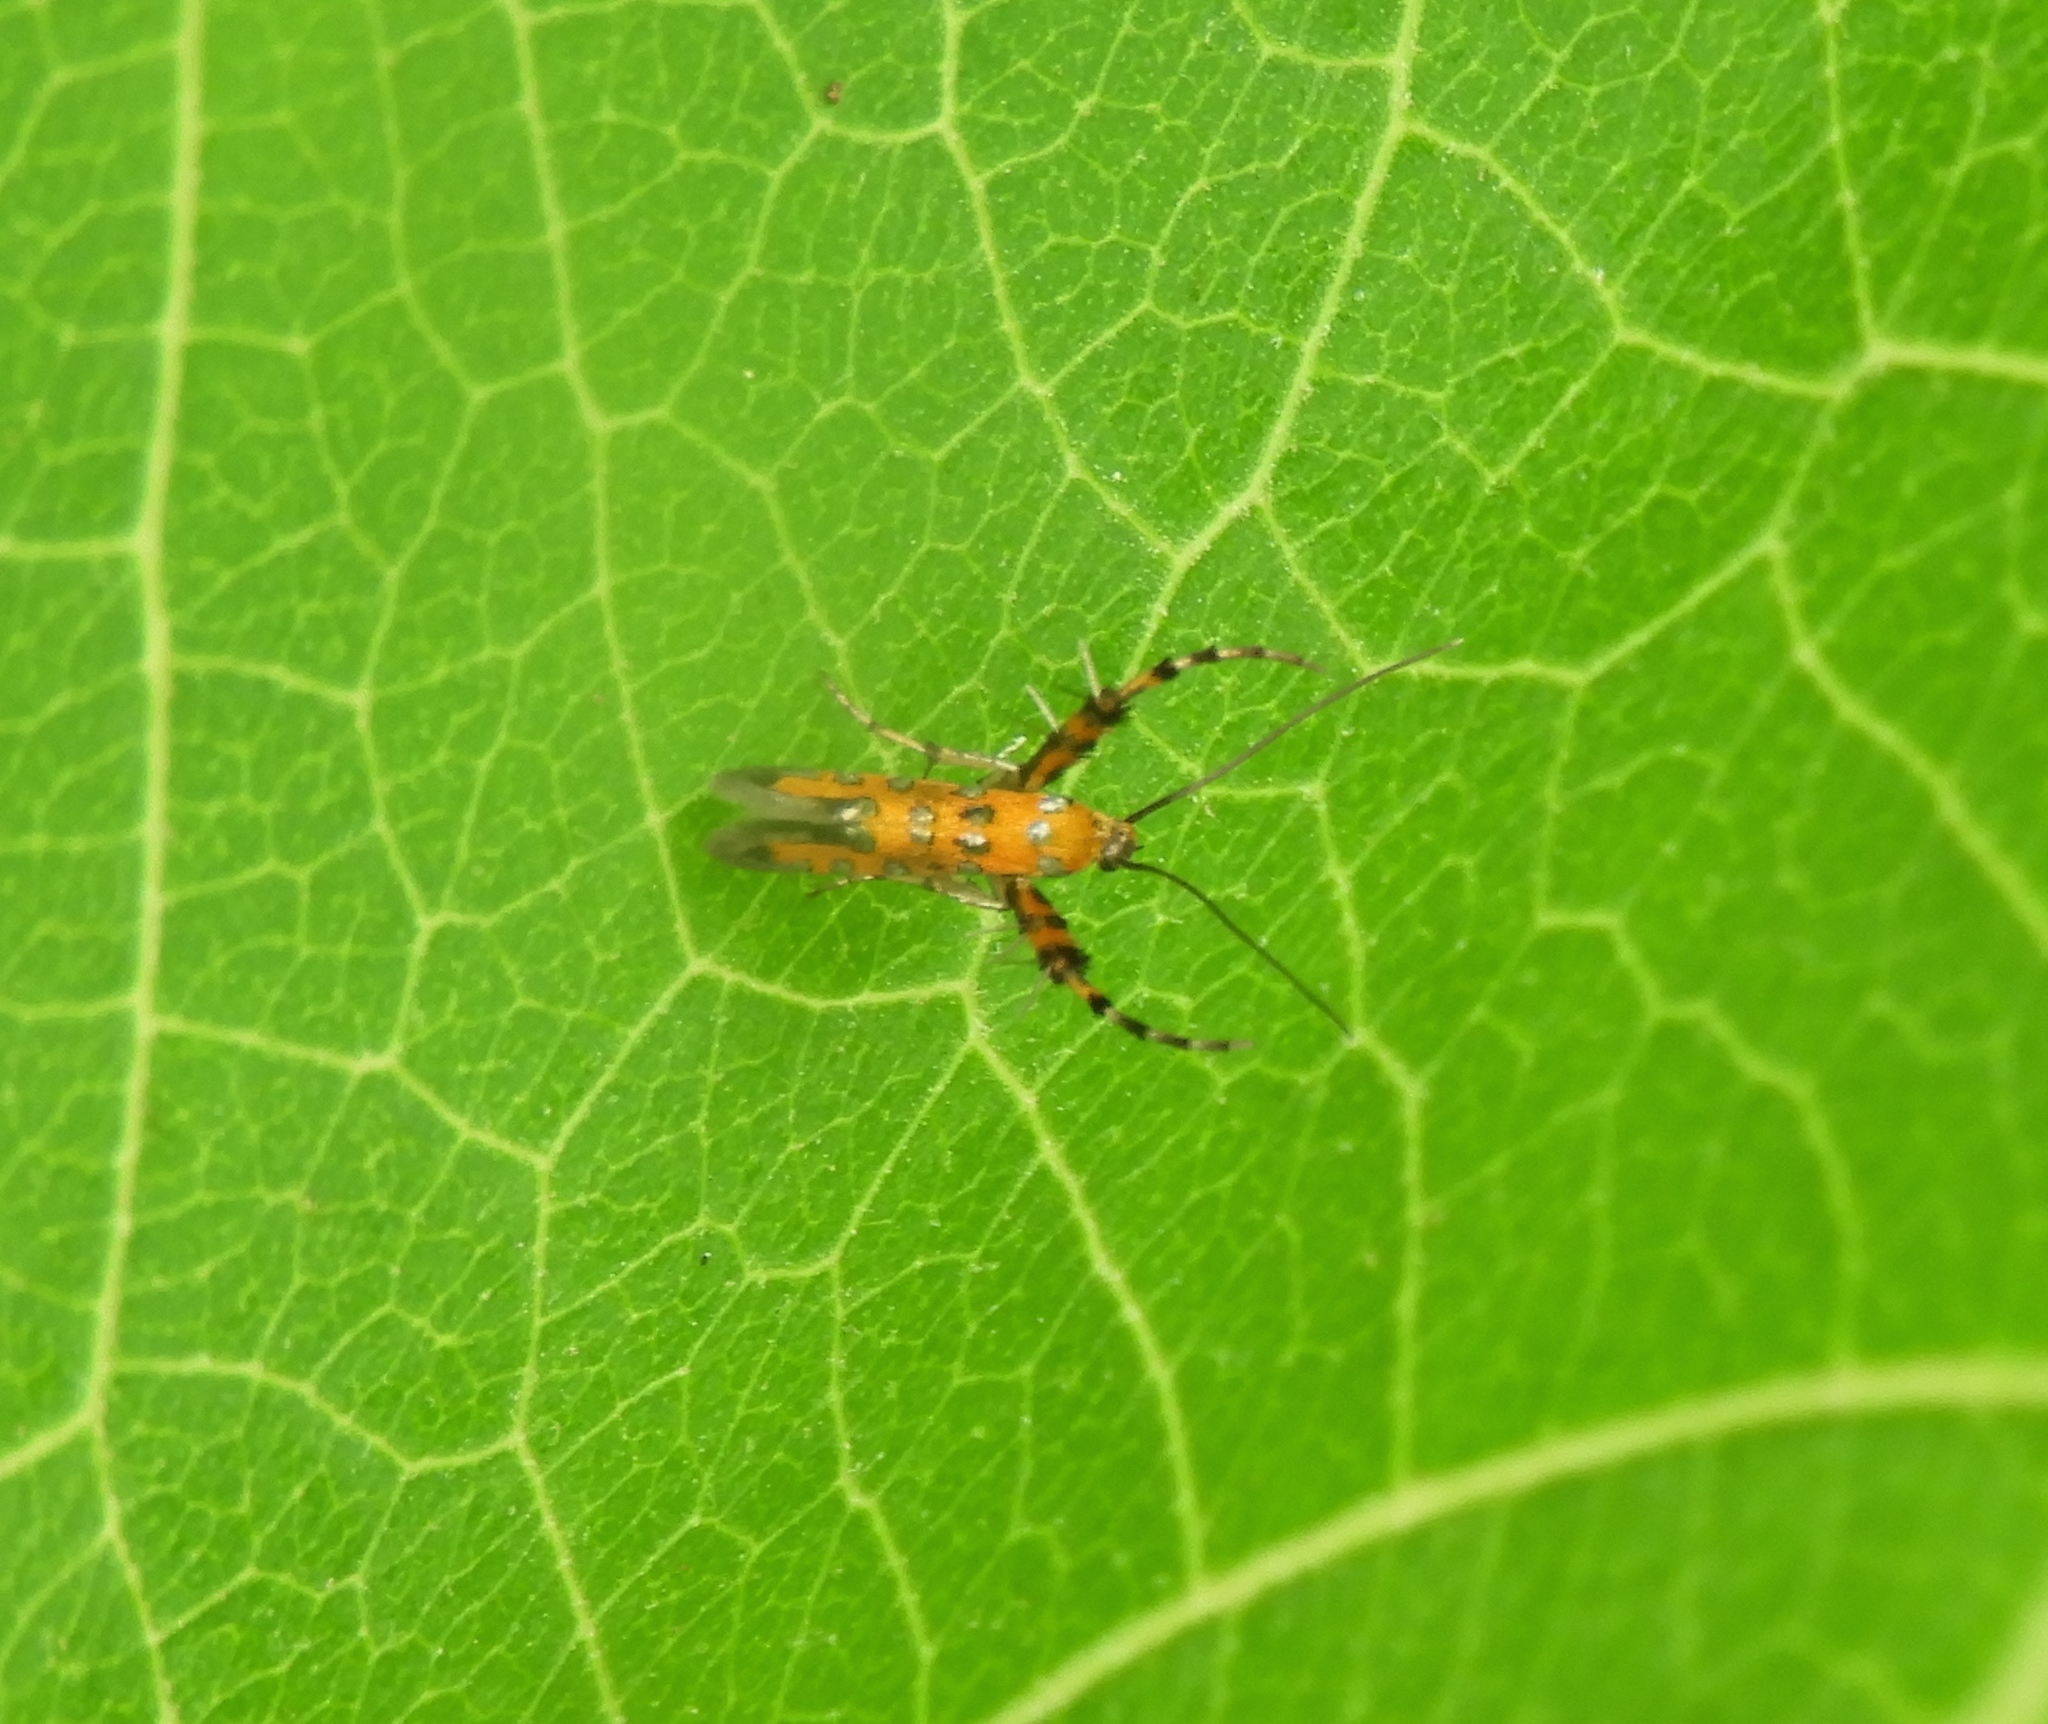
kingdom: Animalia
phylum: Arthropoda
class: Insecta
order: Lepidoptera
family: Heliodinidae
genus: Heliodines
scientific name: Heliodines
